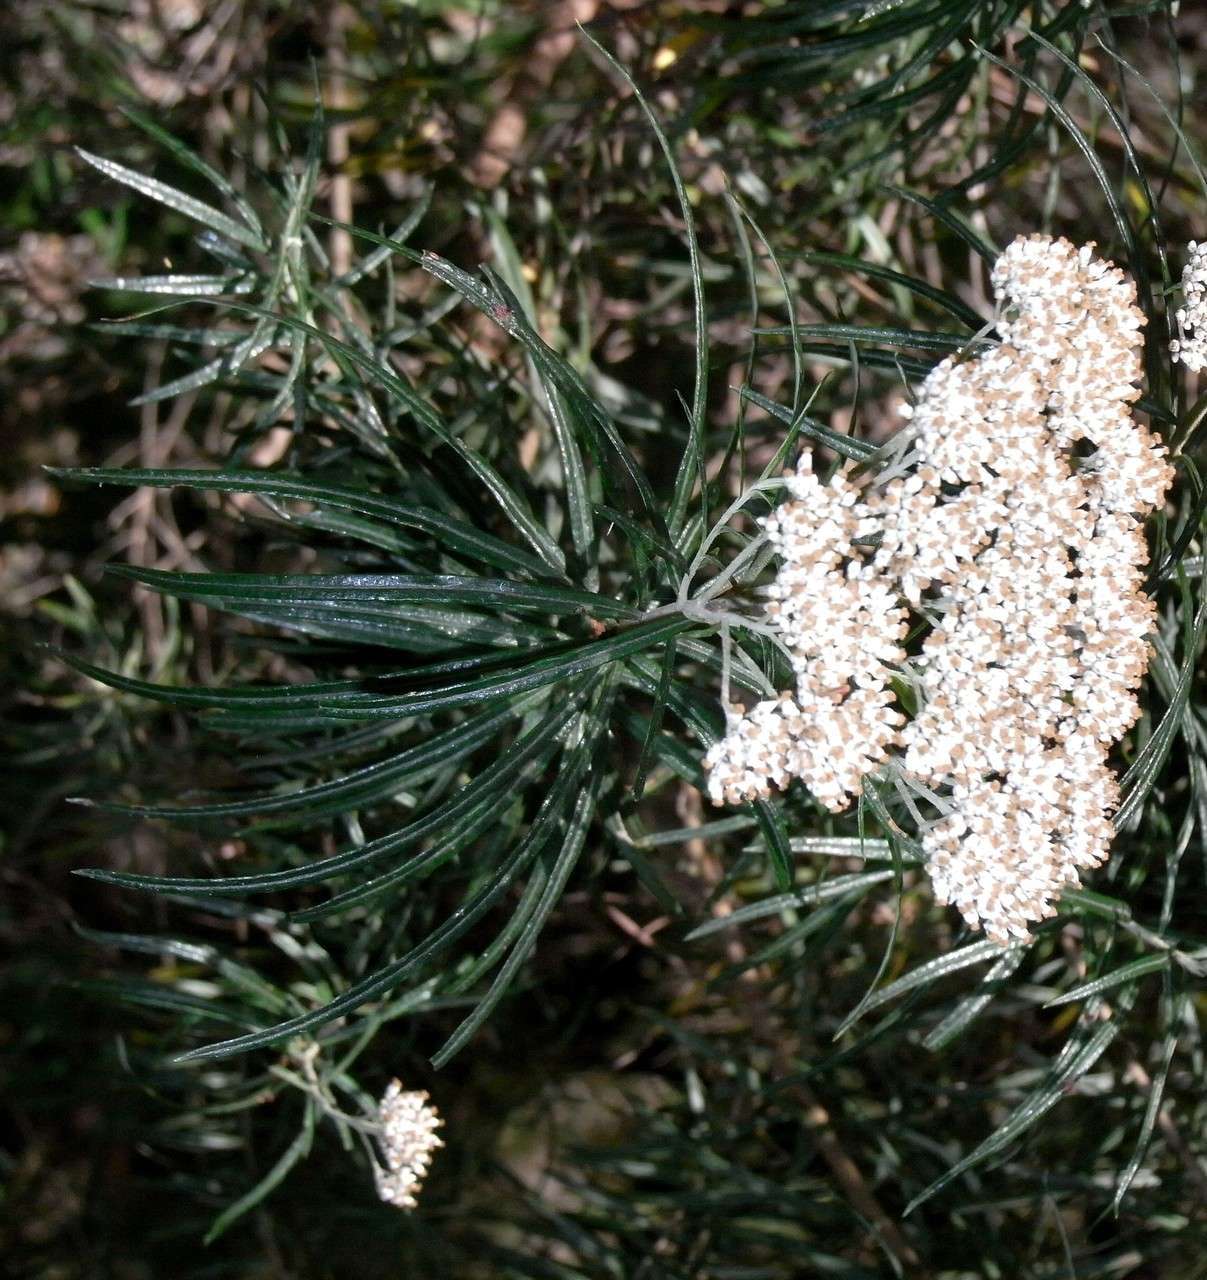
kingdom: Plantae
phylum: Tracheophyta
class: Magnoliopsida
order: Asterales
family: Asteraceae
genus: Cassinia
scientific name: Cassinia longifolia
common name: Longleaf-dogwood
